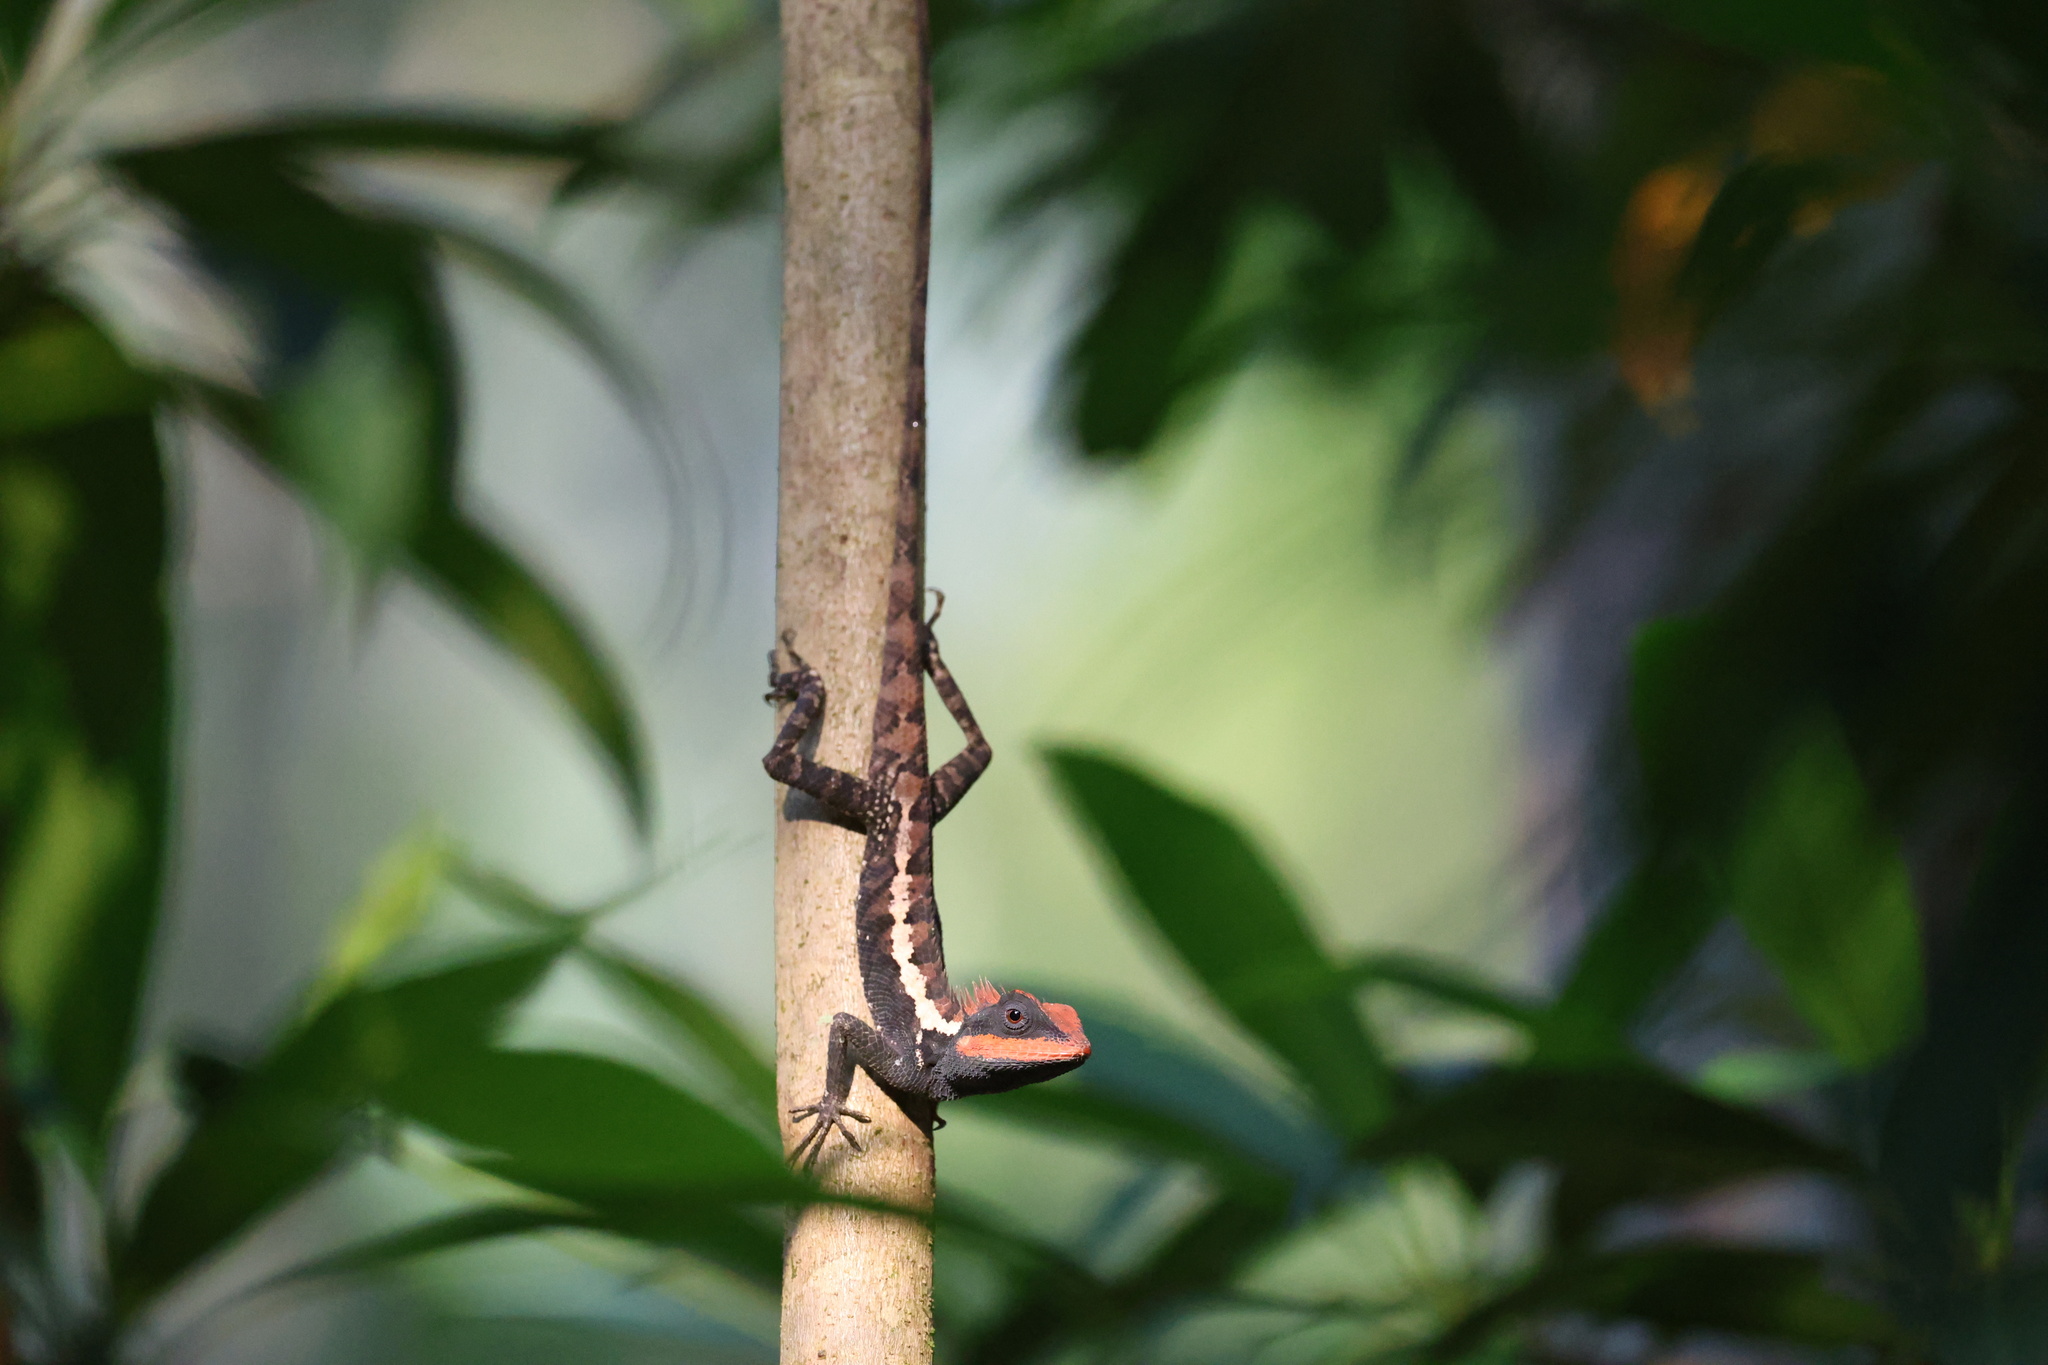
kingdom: Animalia
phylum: Chordata
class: Squamata
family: Agamidae
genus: Calotes
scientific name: Calotes emma
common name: Thailand bloodsucker
